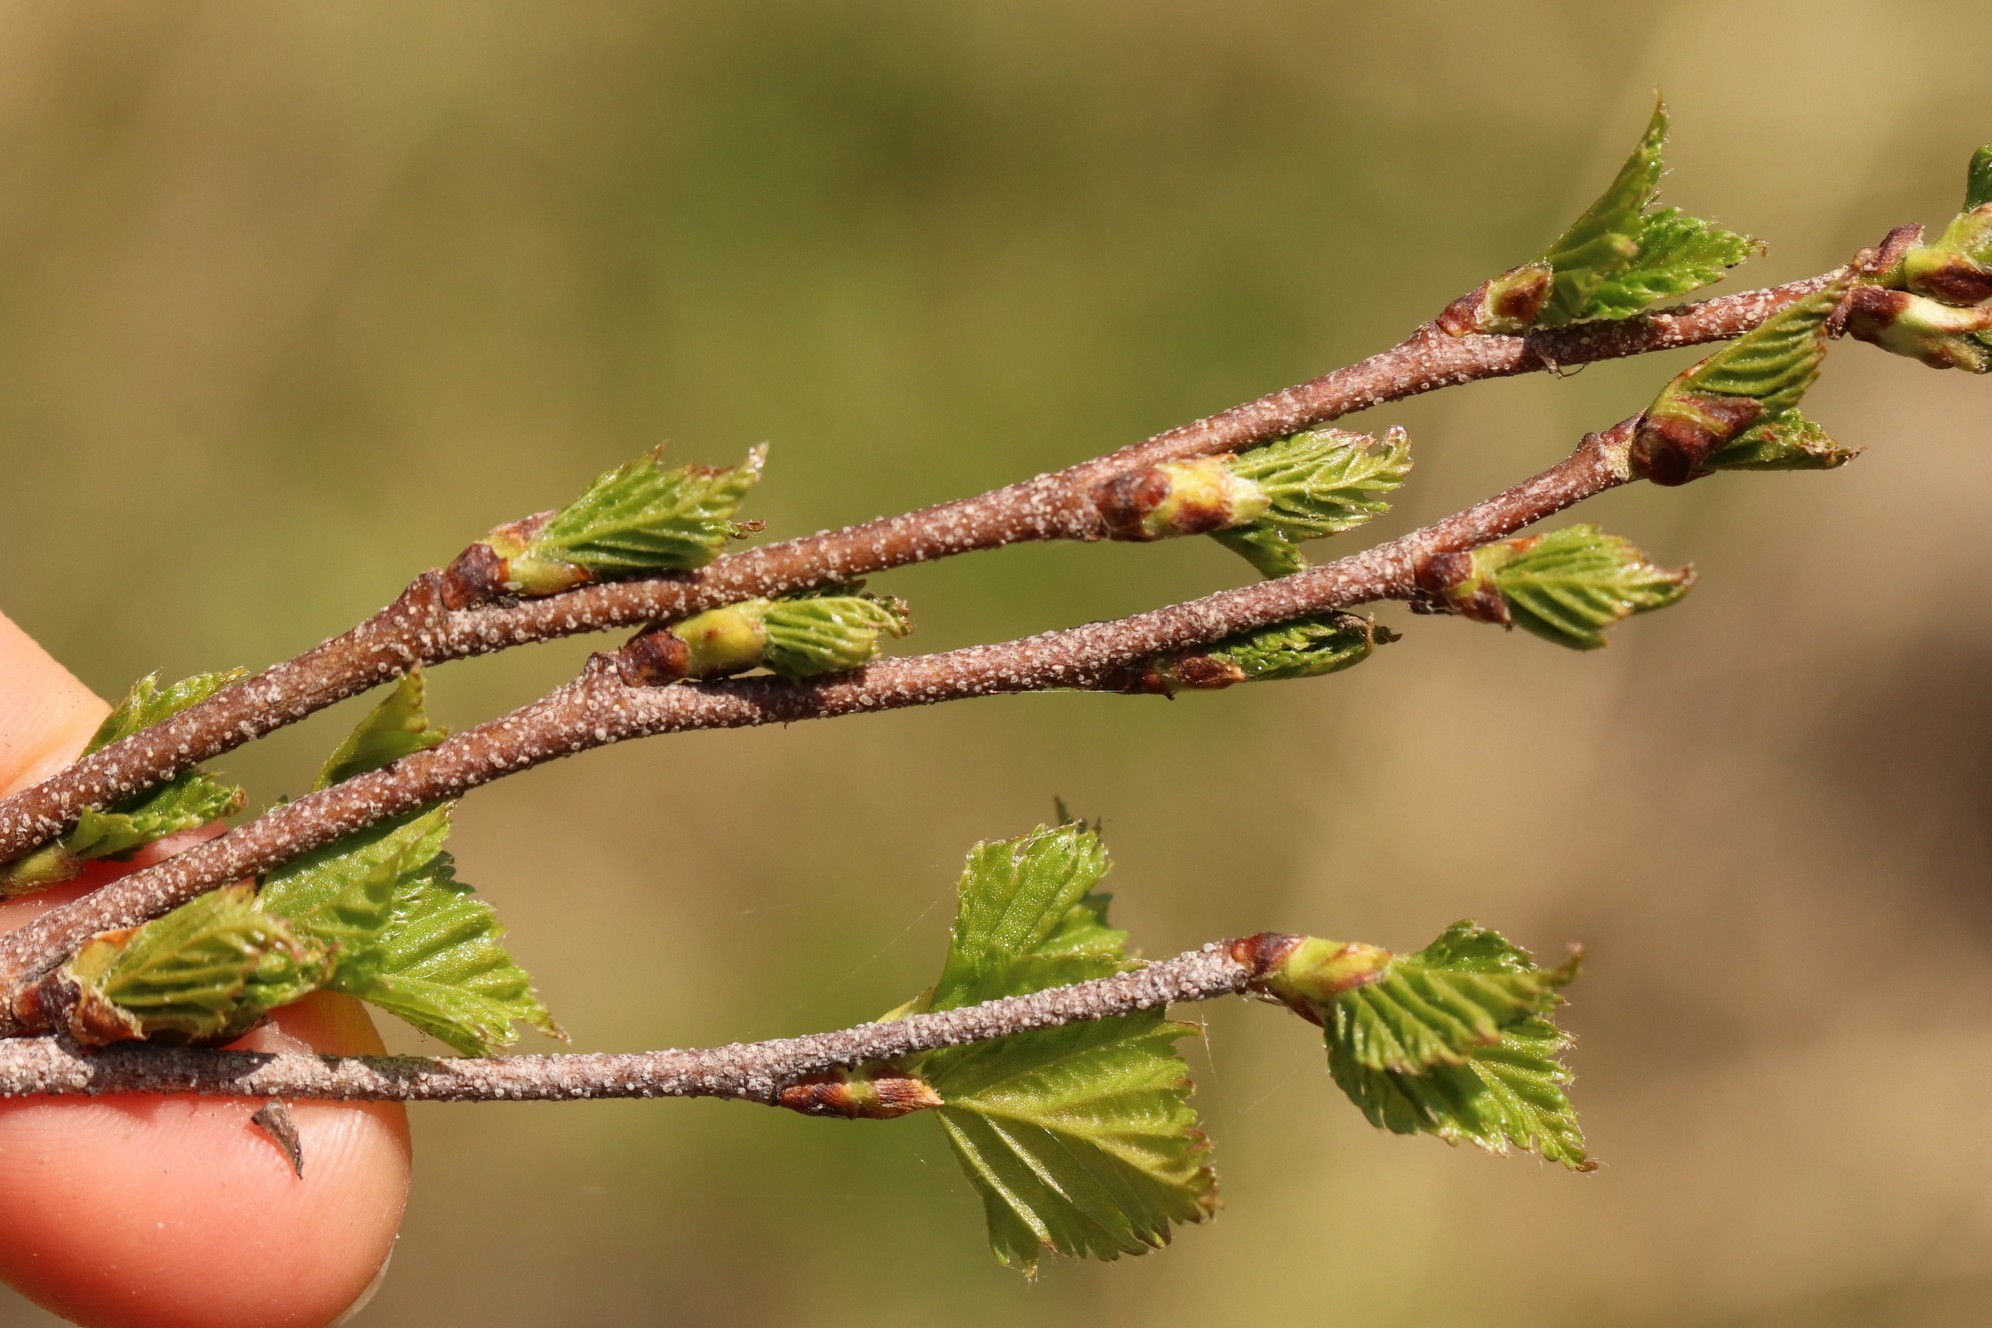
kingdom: Plantae
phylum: Tracheophyta
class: Magnoliopsida
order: Fagales
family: Betulaceae
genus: Betula
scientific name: Betula pendula
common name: Silver birch
